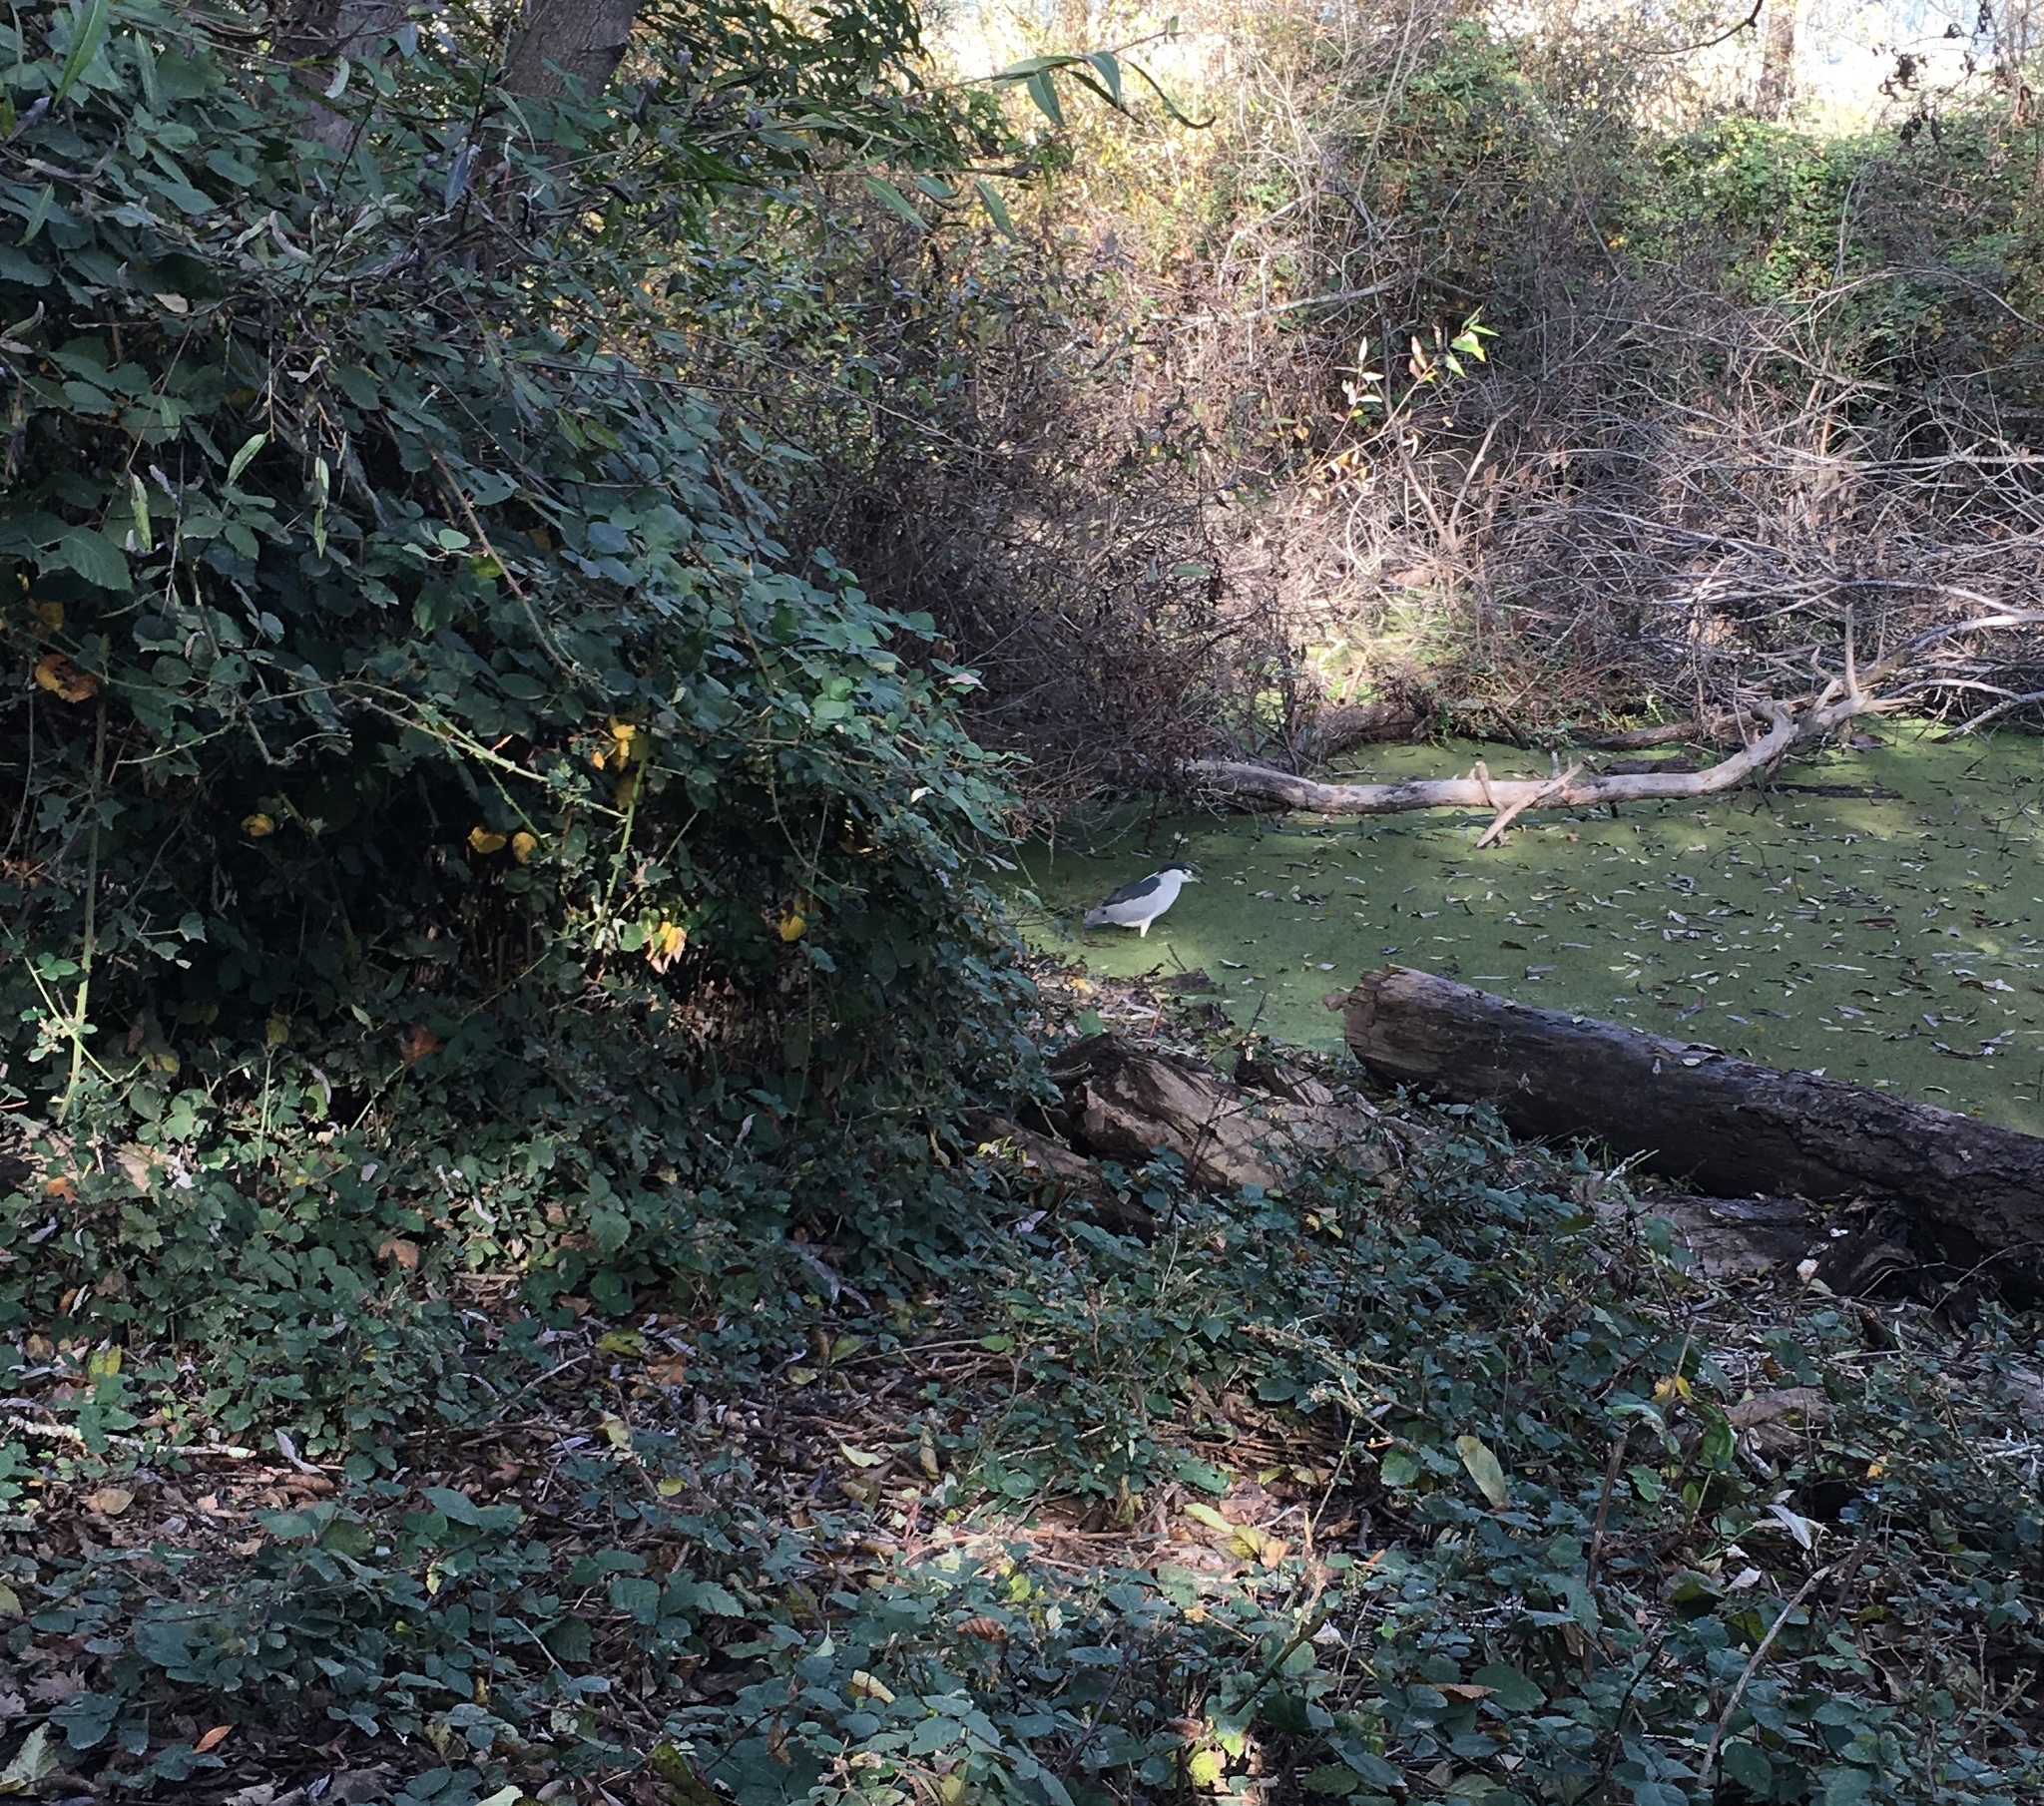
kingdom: Animalia
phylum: Chordata
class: Aves
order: Pelecaniformes
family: Ardeidae
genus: Nycticorax
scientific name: Nycticorax nycticorax
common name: Black-crowned night heron
